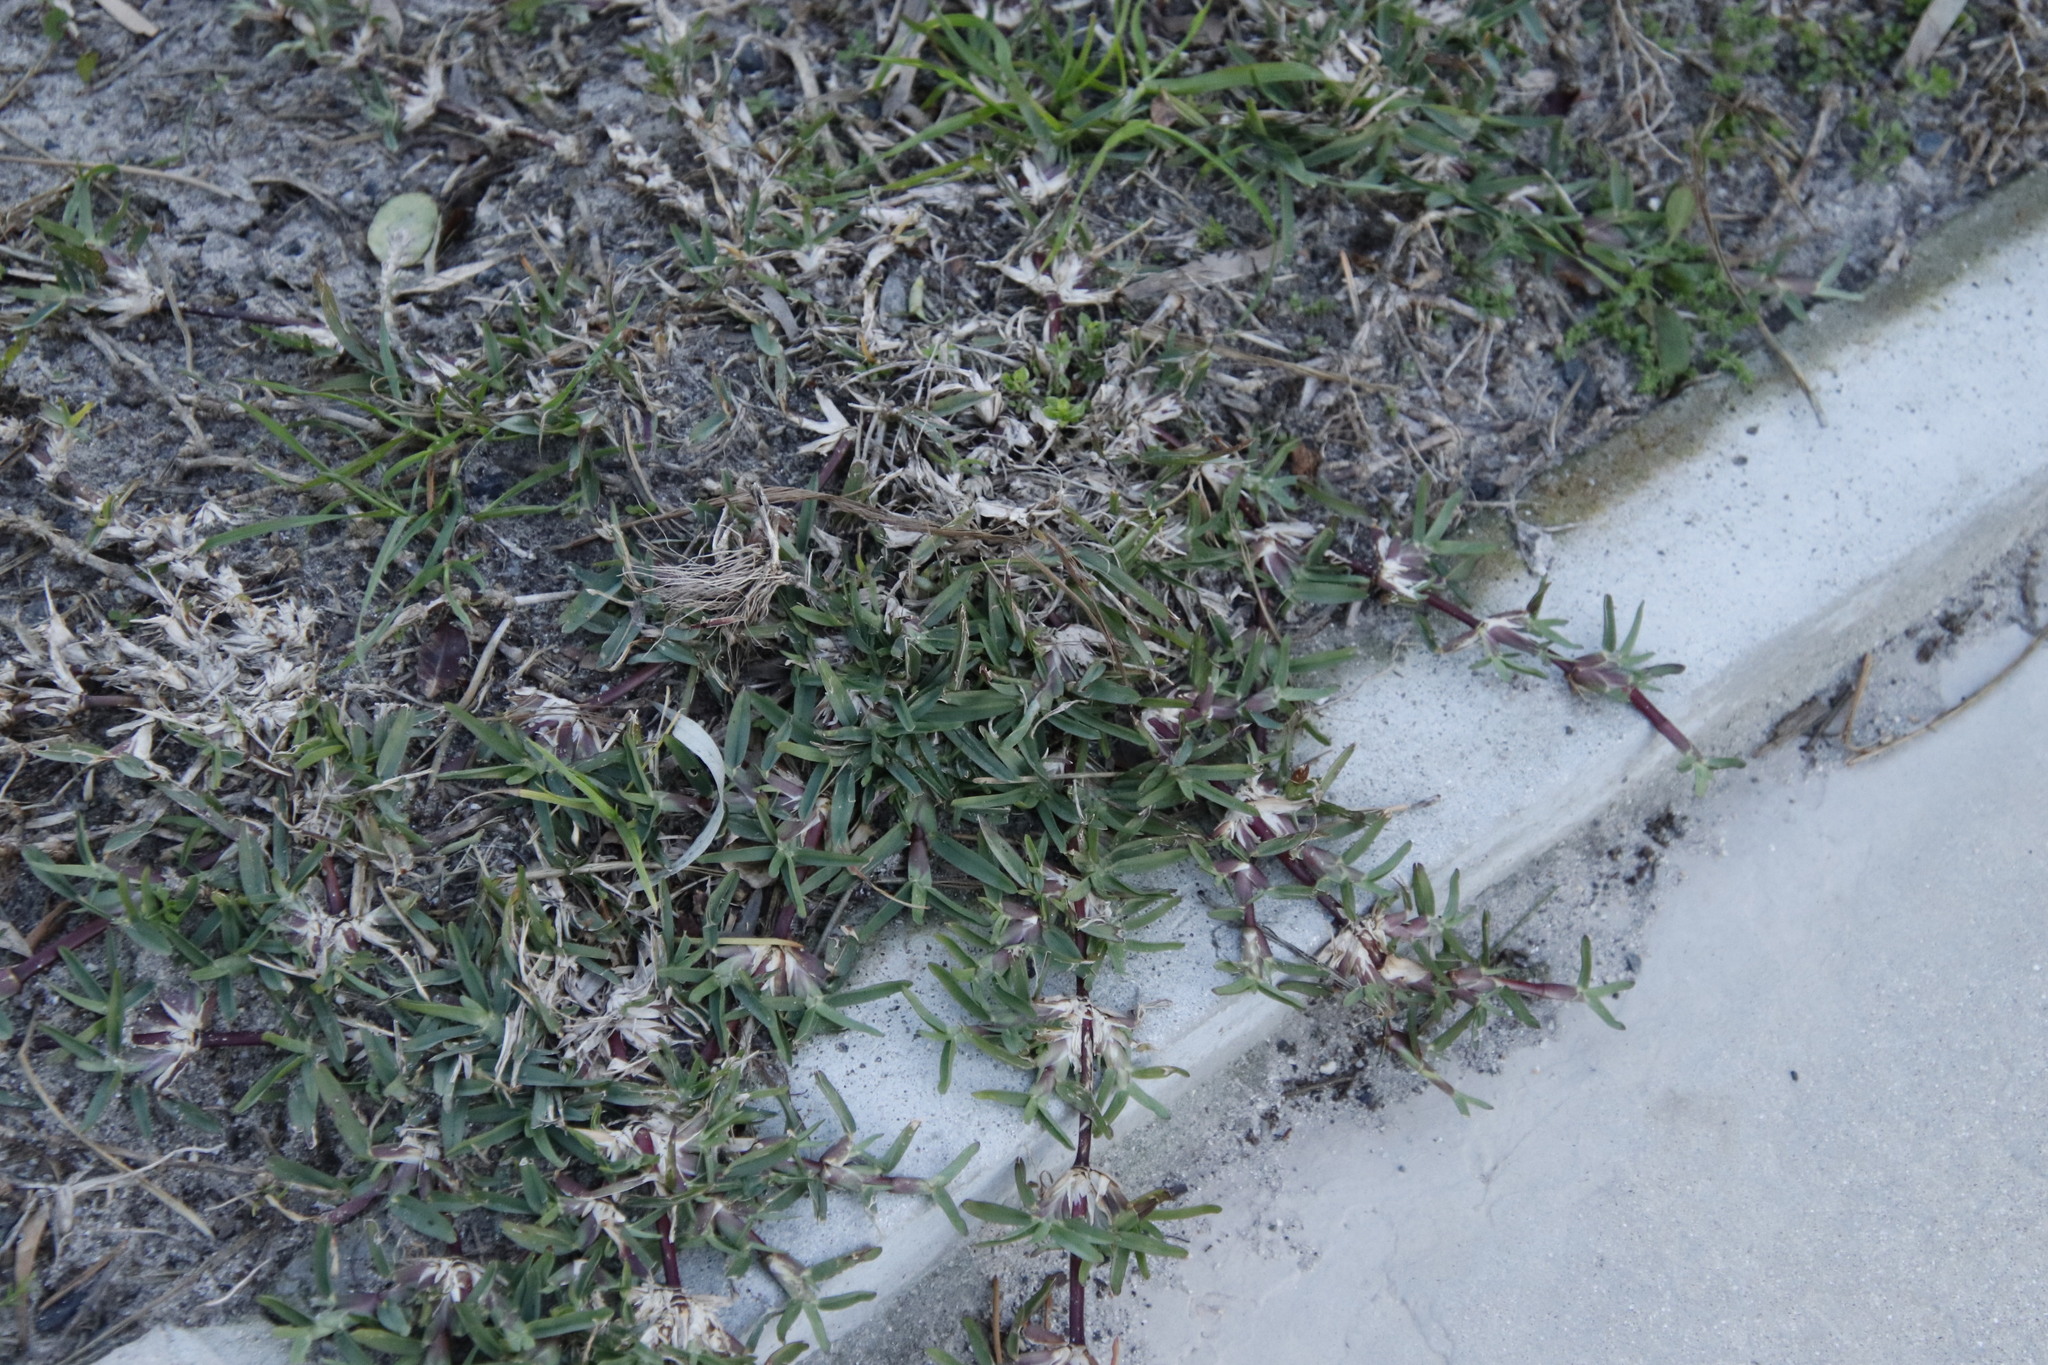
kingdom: Plantae
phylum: Tracheophyta
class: Liliopsida
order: Poales
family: Poaceae
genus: Stenotaphrum
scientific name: Stenotaphrum secundatum
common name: St. augustine grass
